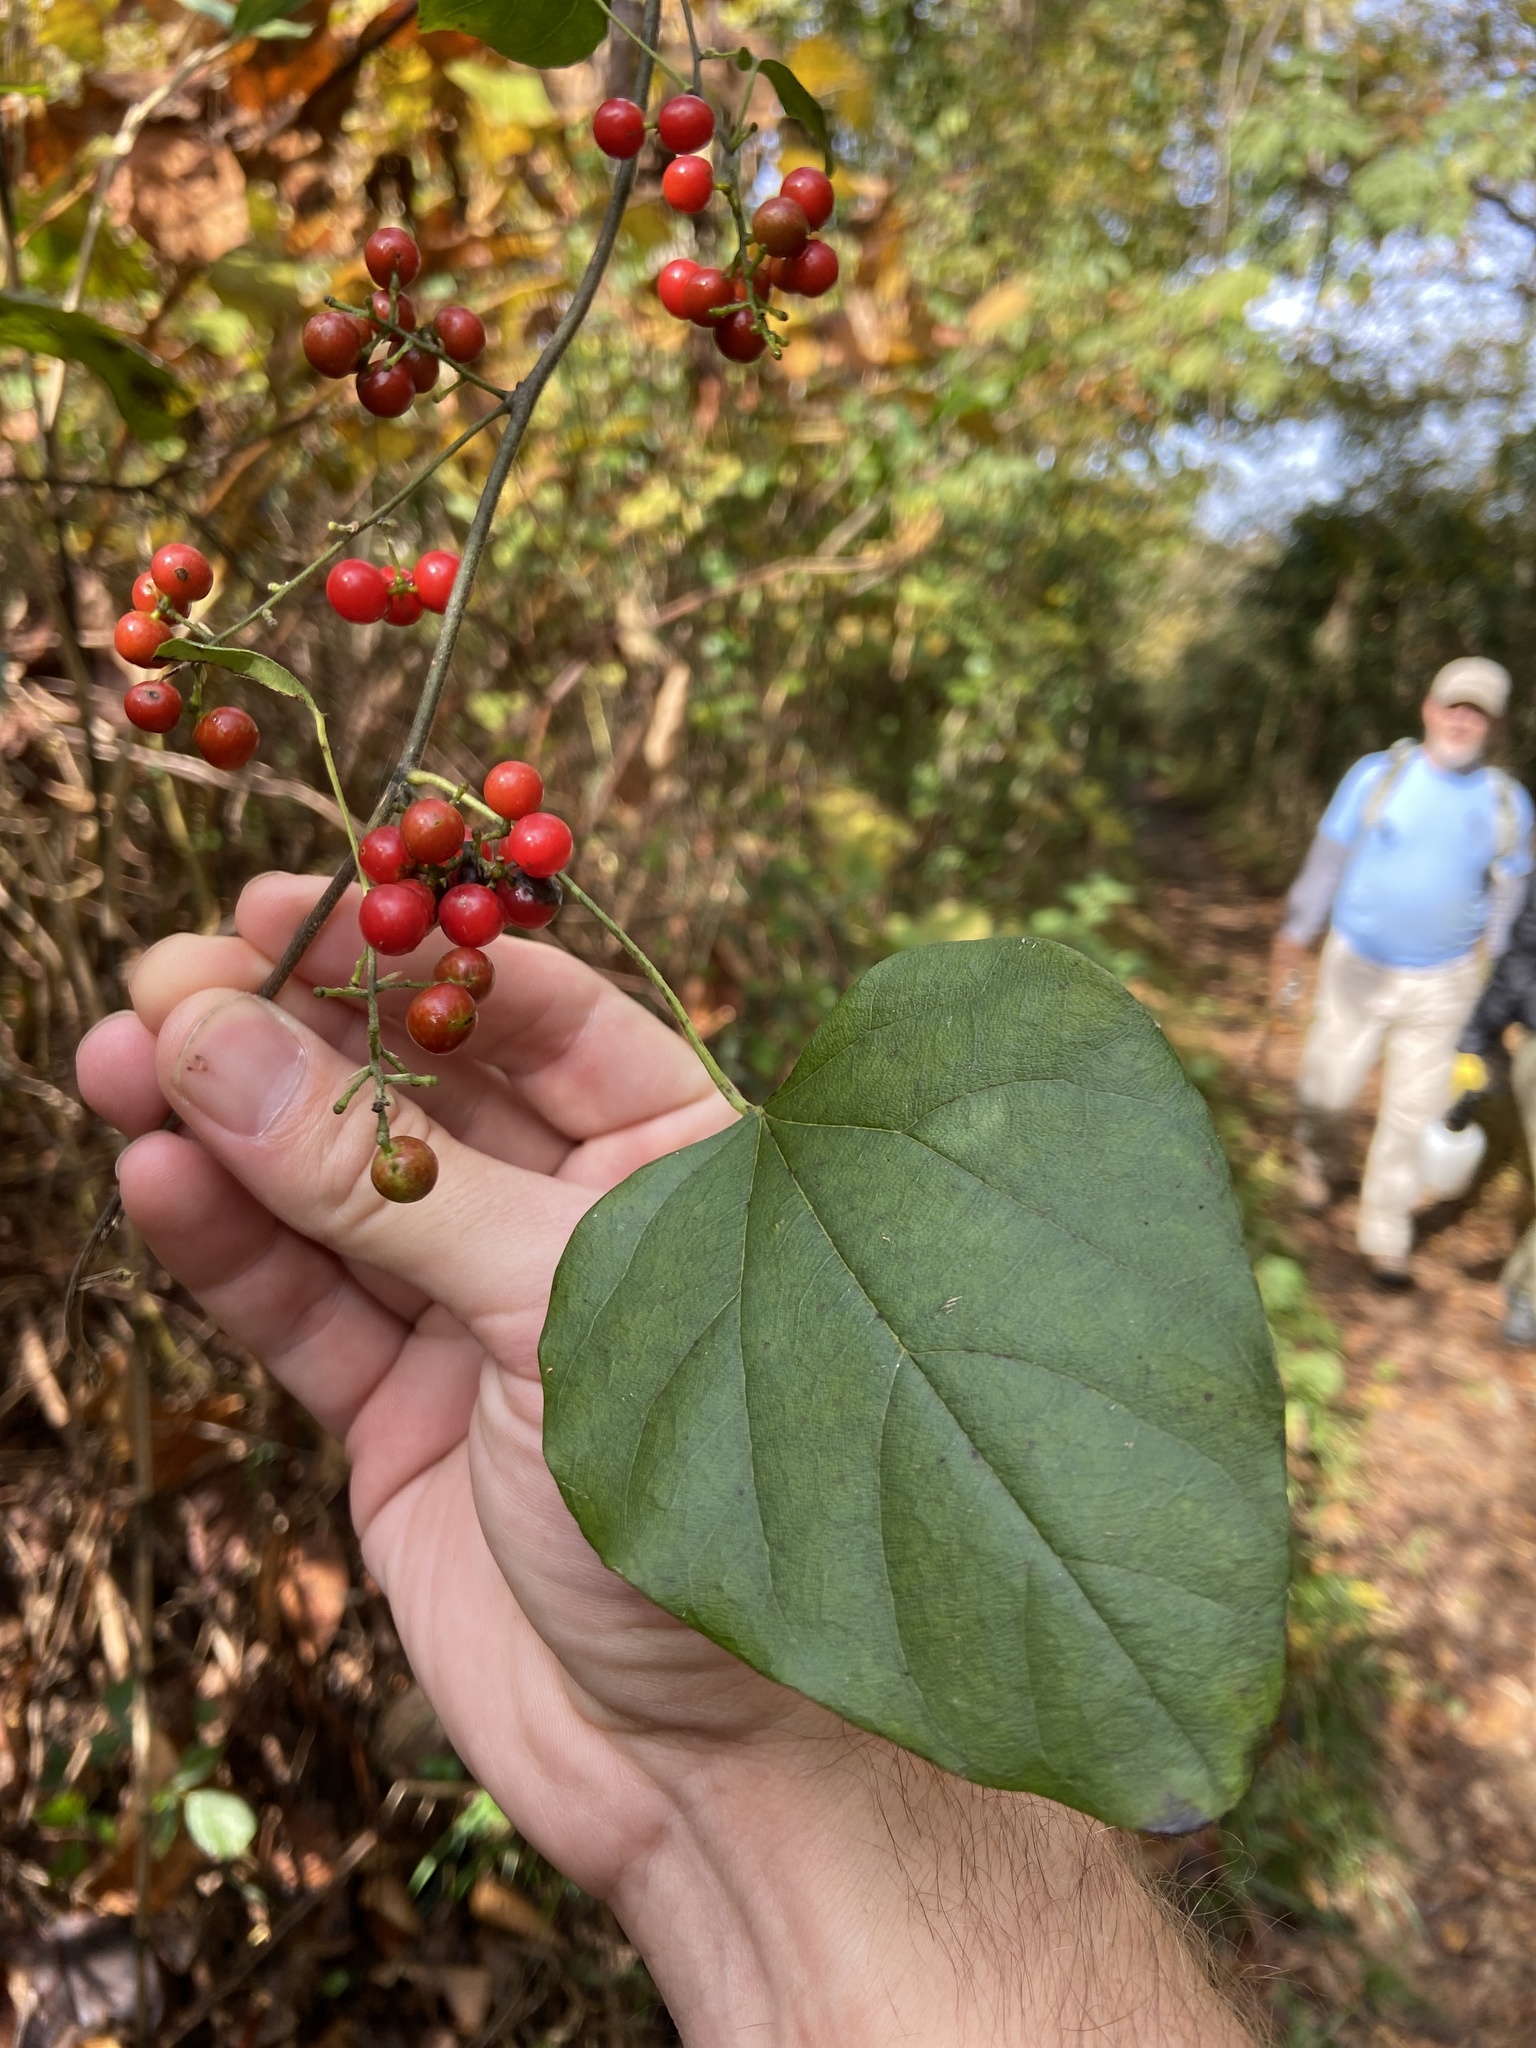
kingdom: Plantae
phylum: Tracheophyta
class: Magnoliopsida
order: Ranunculales
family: Menispermaceae
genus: Cocculus
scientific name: Cocculus carolinus
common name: Carolina moonseed
